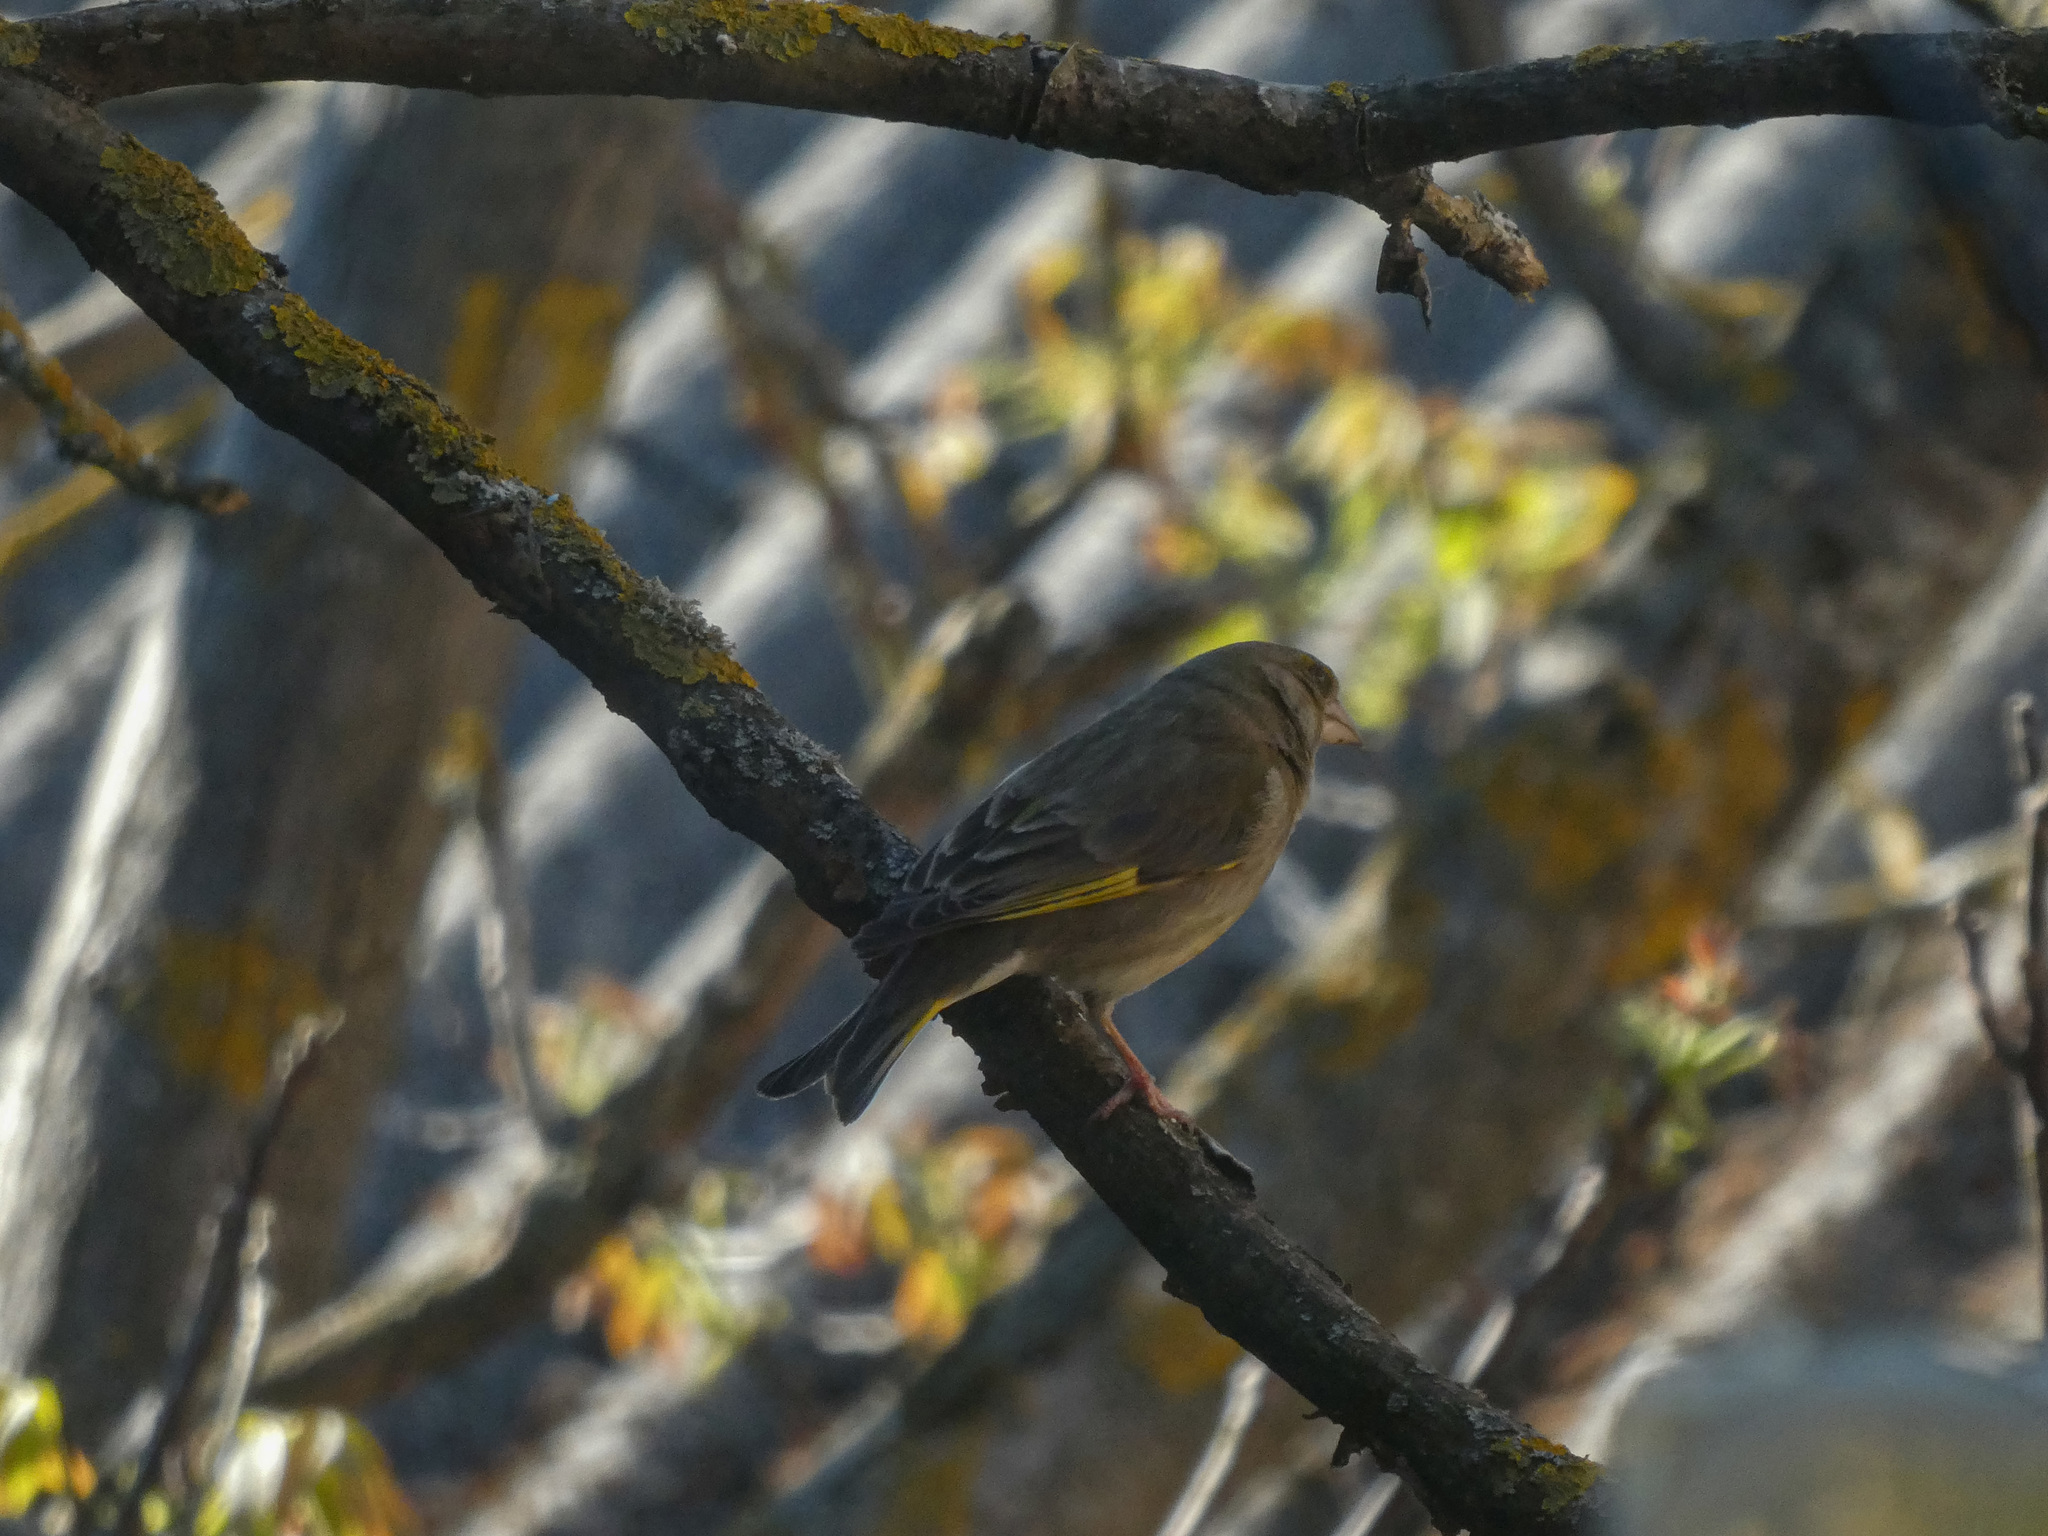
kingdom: Plantae
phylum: Tracheophyta
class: Liliopsida
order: Poales
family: Poaceae
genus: Chloris
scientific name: Chloris chloris
